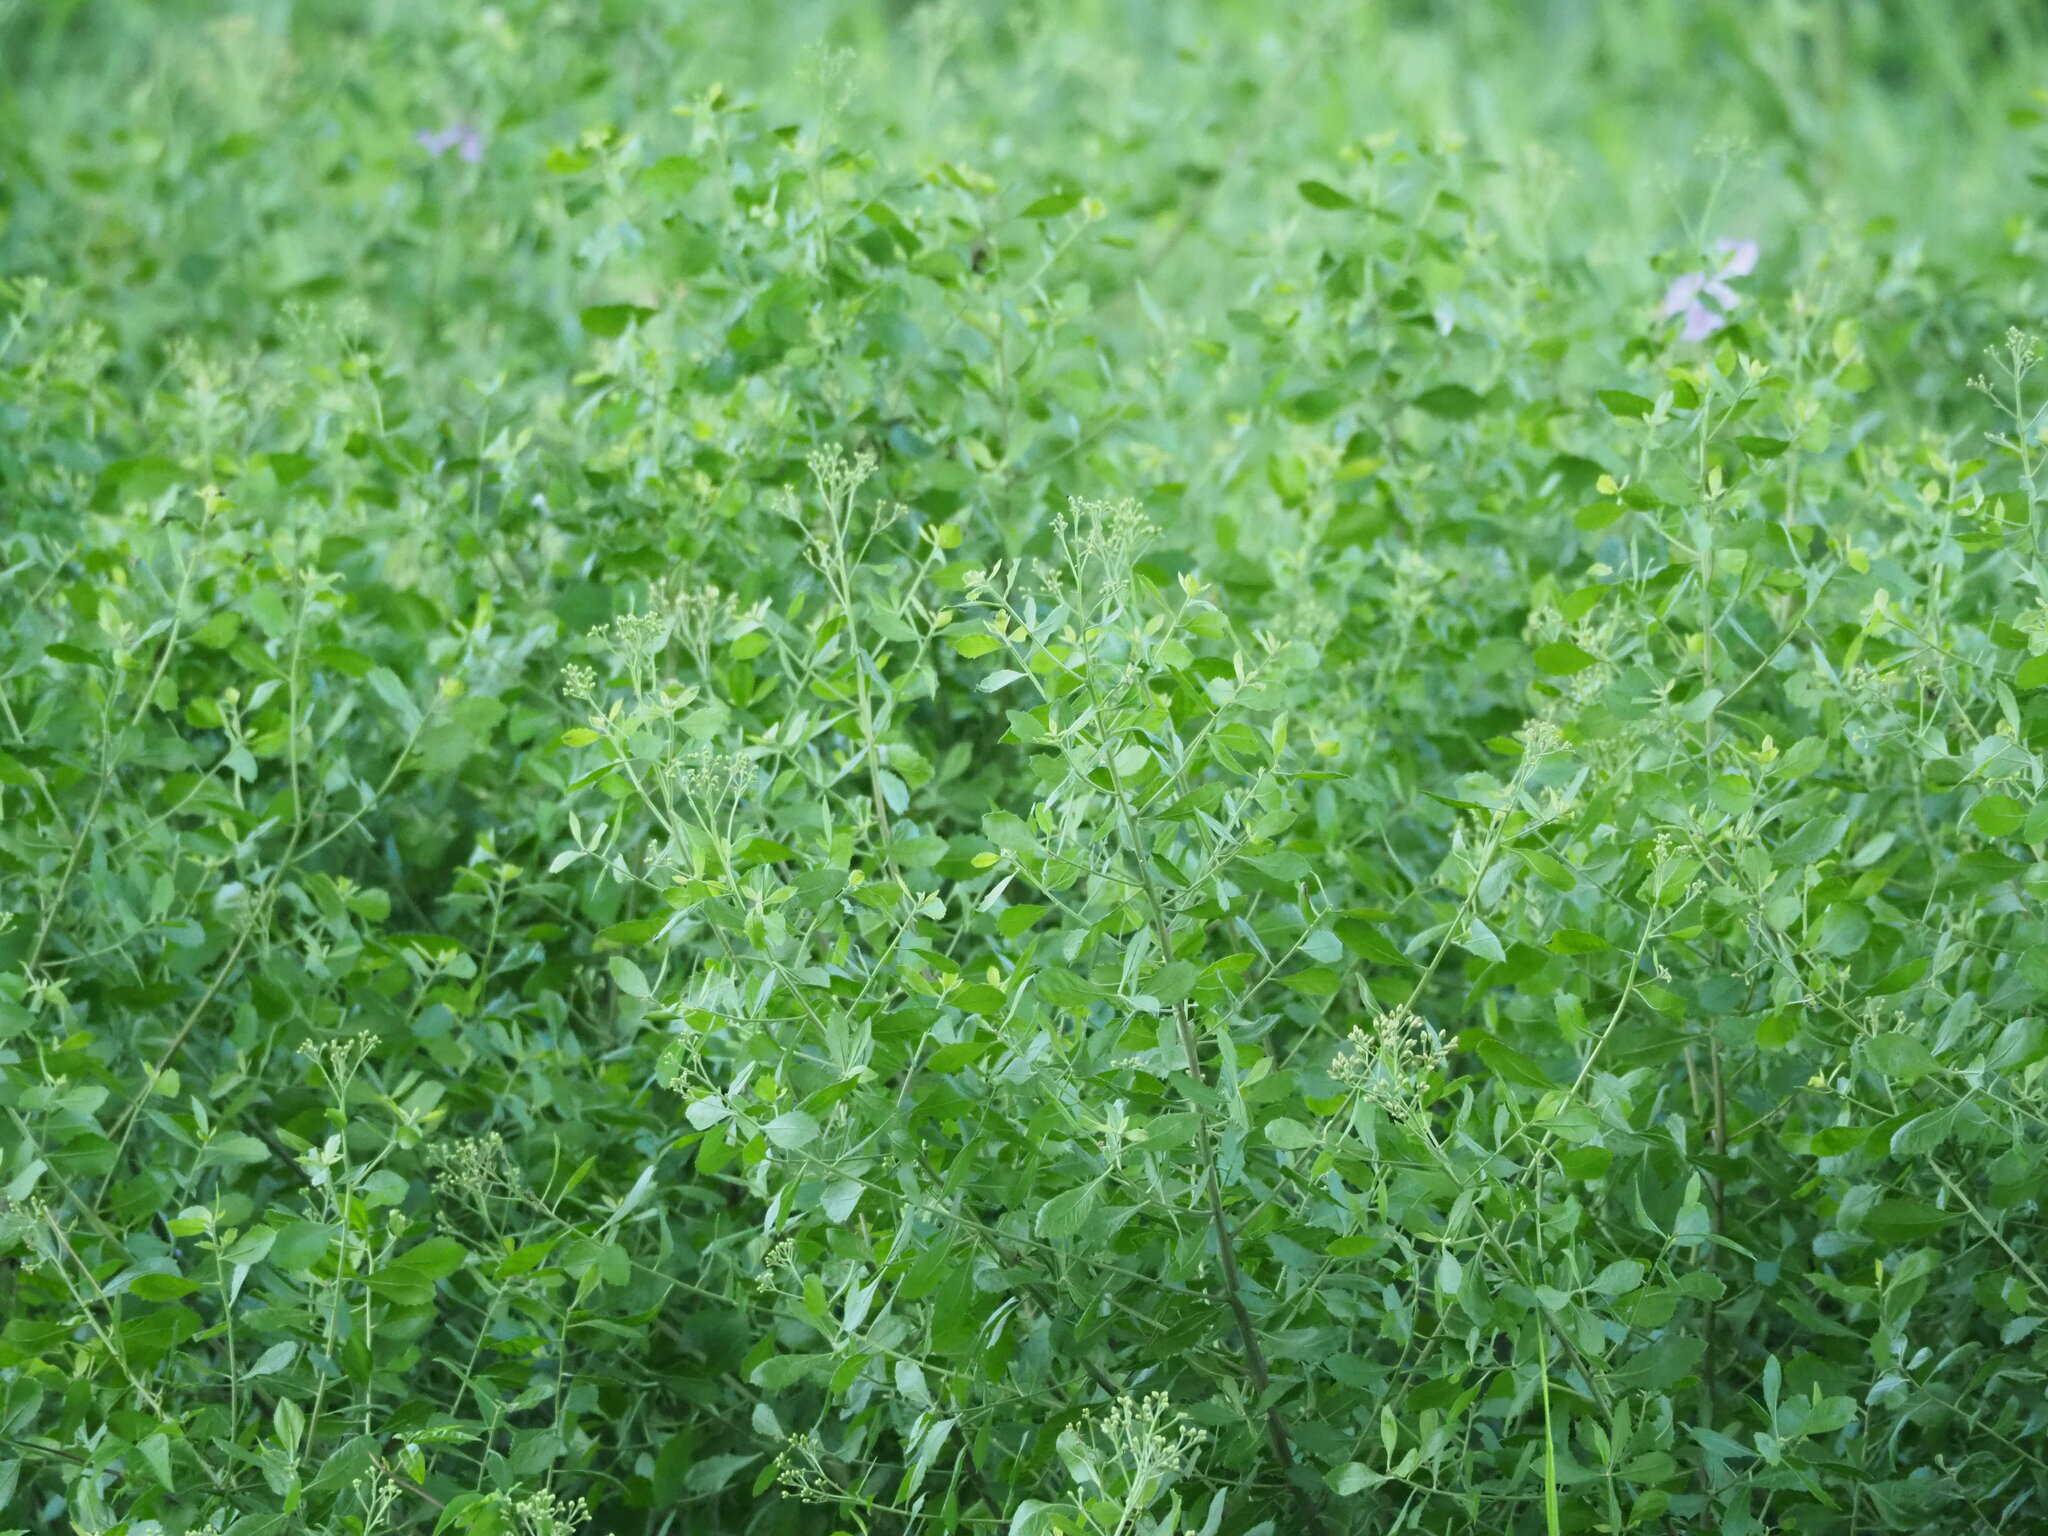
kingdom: Plantae
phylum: Tracheophyta
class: Magnoliopsida
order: Asterales
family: Asteraceae
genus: Pluchea
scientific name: Pluchea indica
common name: Indian fleabane
